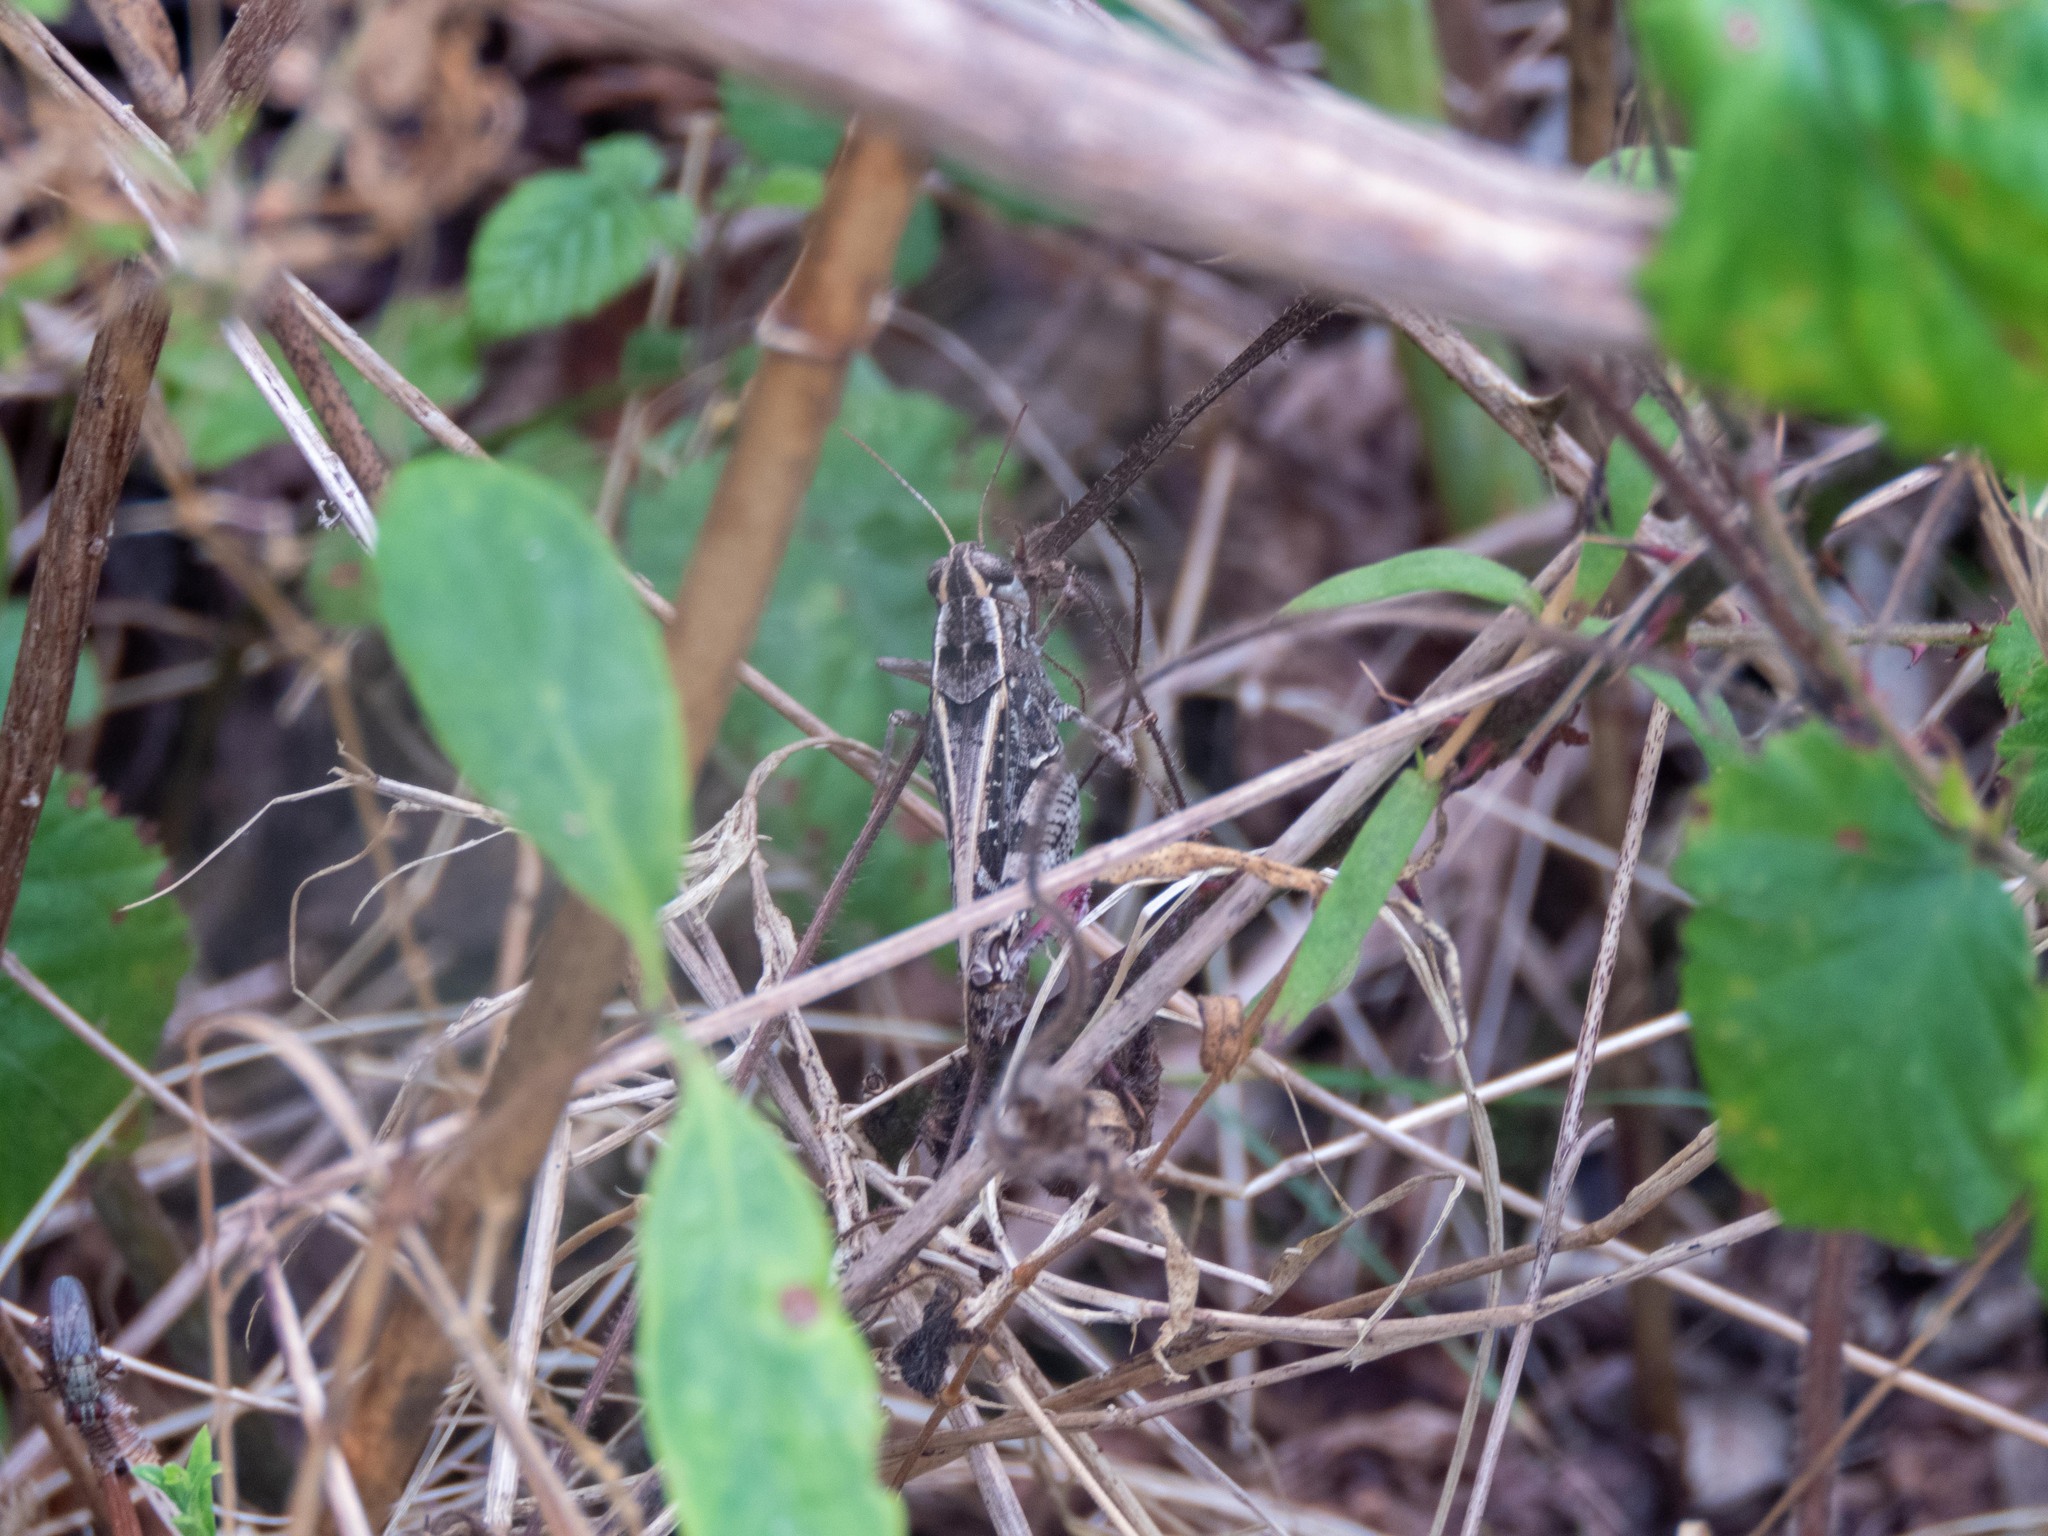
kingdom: Animalia
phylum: Arthropoda
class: Insecta
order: Orthoptera
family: Acrididae
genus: Calliptamus
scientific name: Calliptamus barbarus
